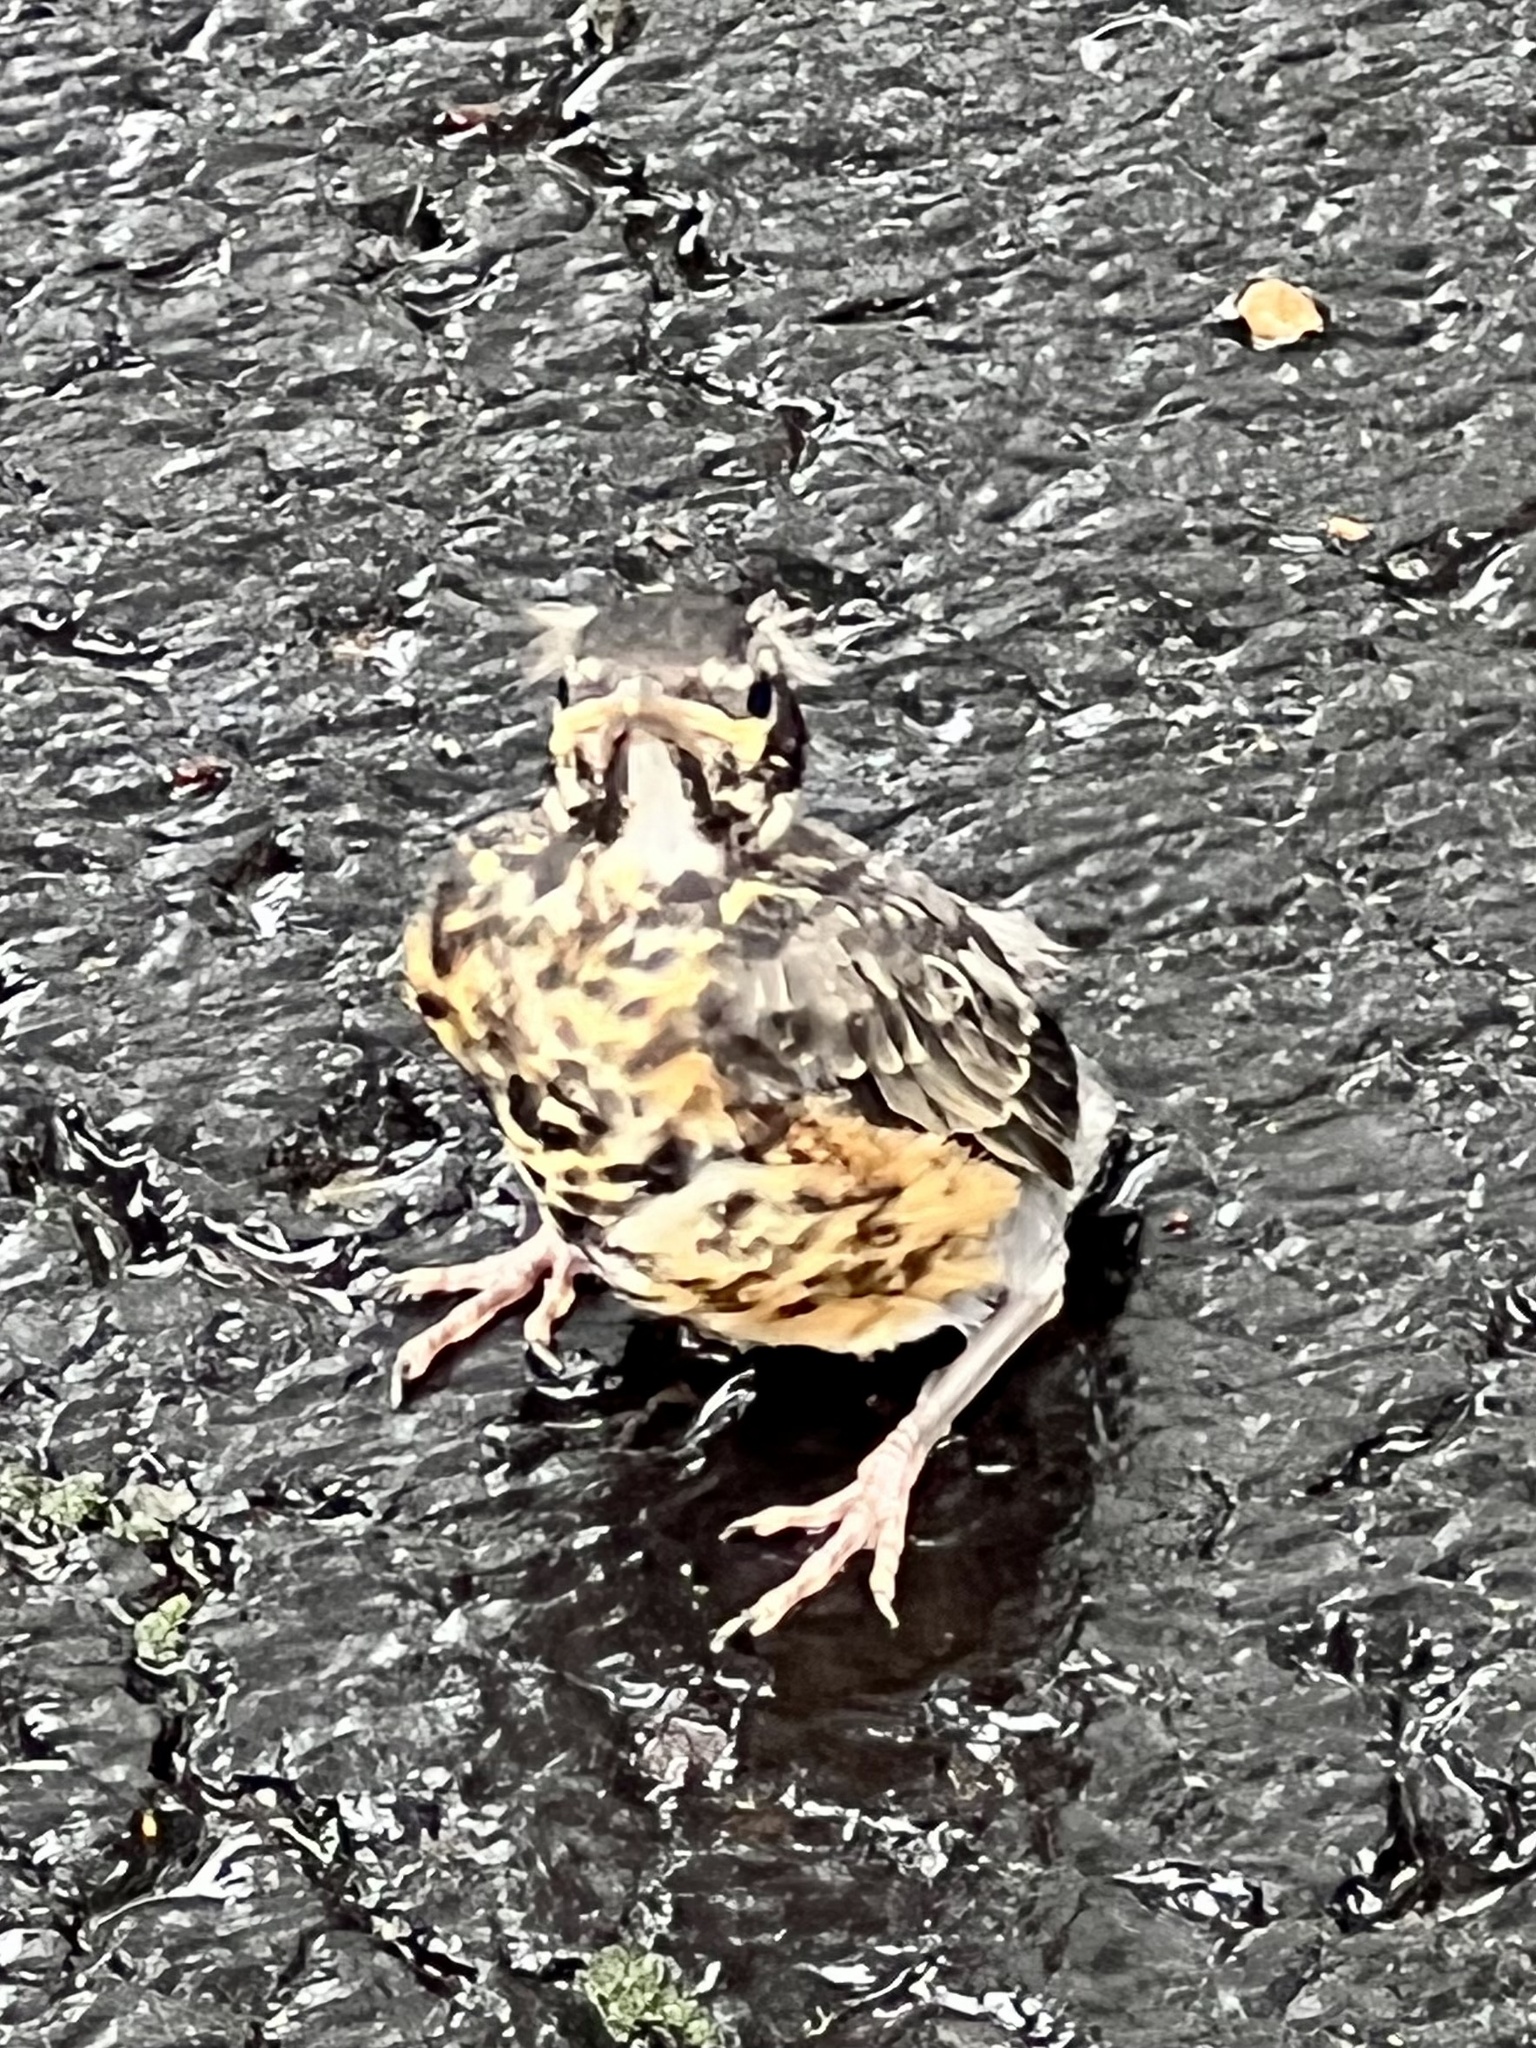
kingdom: Animalia
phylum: Chordata
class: Aves
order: Passeriformes
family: Turdidae
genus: Turdus
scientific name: Turdus migratorius
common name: American robin
